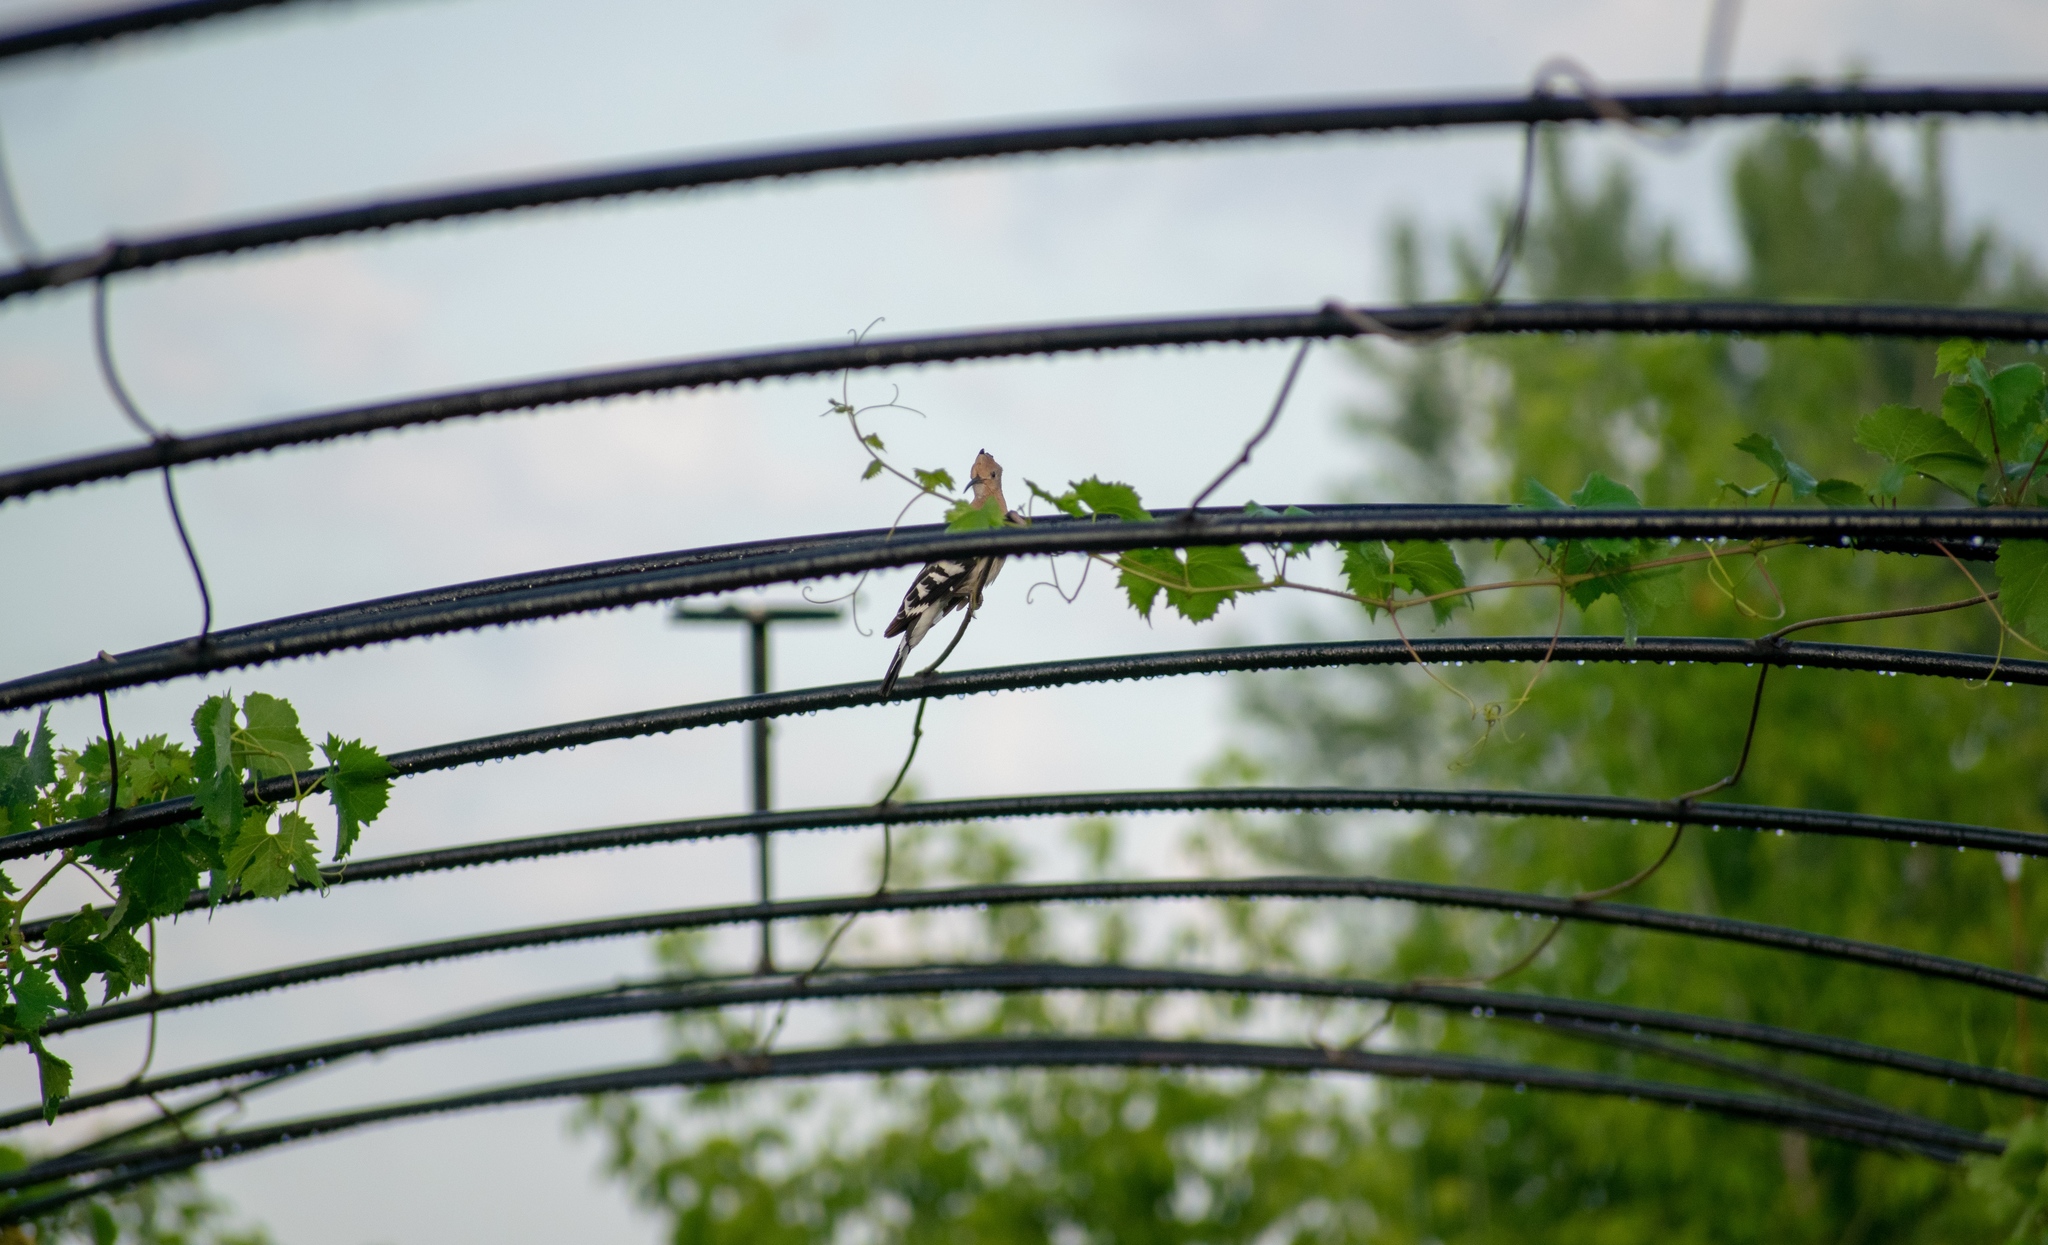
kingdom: Animalia
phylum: Chordata
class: Aves
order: Bucerotiformes
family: Upupidae
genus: Upupa
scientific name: Upupa epops
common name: Eurasian hoopoe
